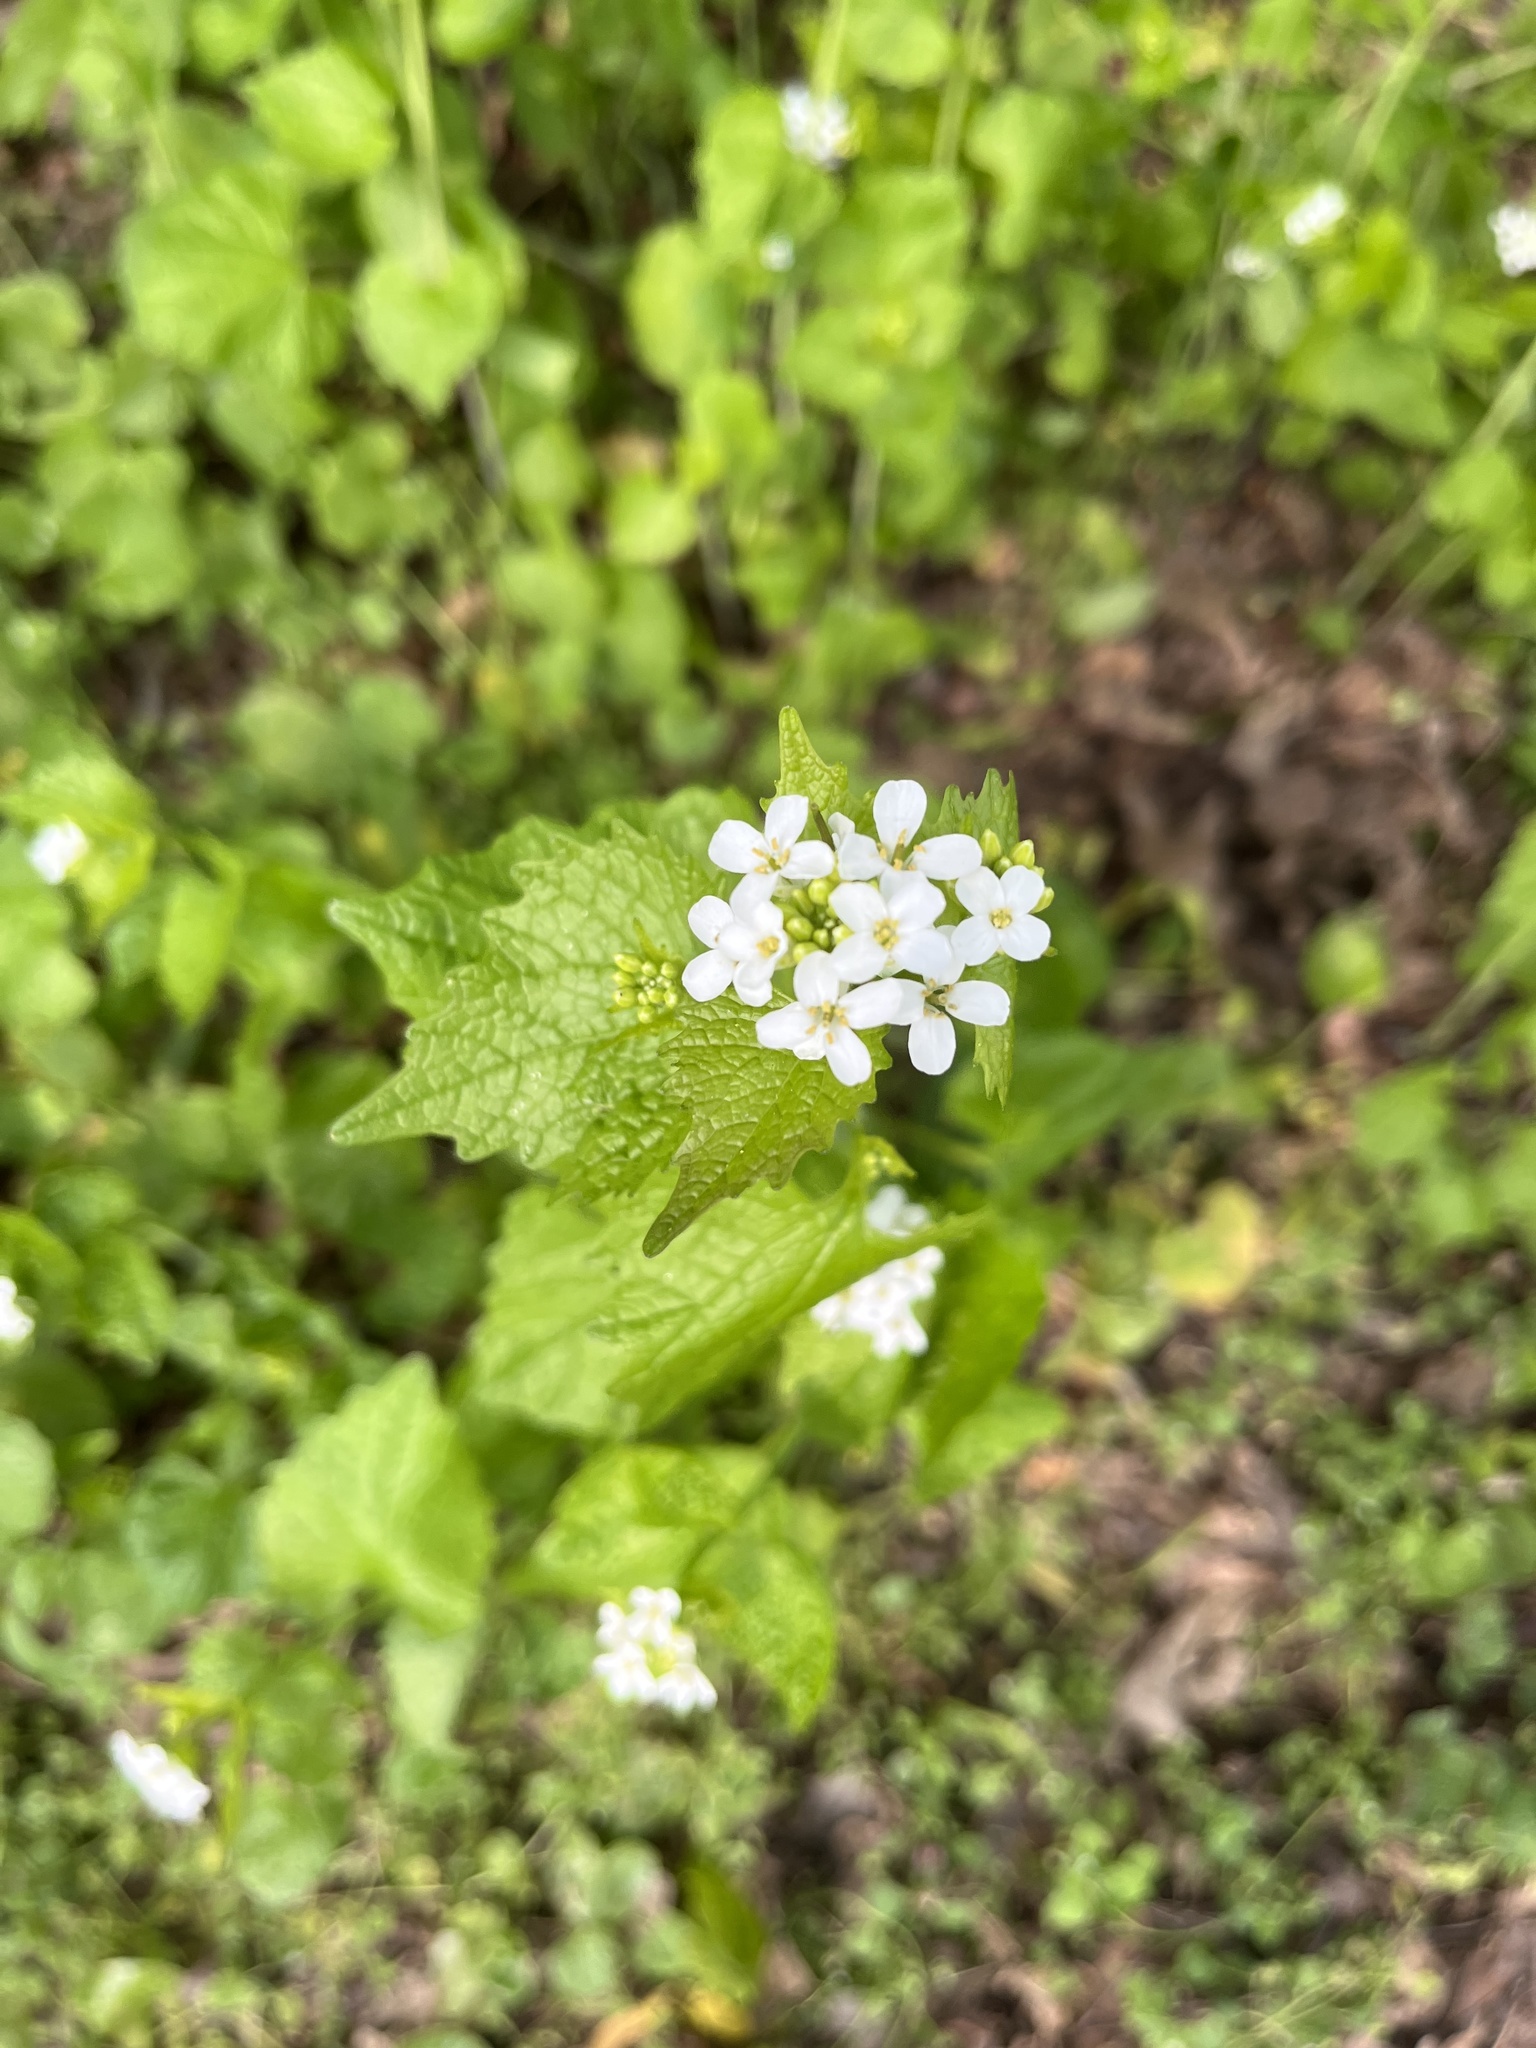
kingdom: Plantae
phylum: Tracheophyta
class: Magnoliopsida
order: Brassicales
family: Brassicaceae
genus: Alliaria
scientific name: Alliaria petiolata
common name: Garlic mustard
